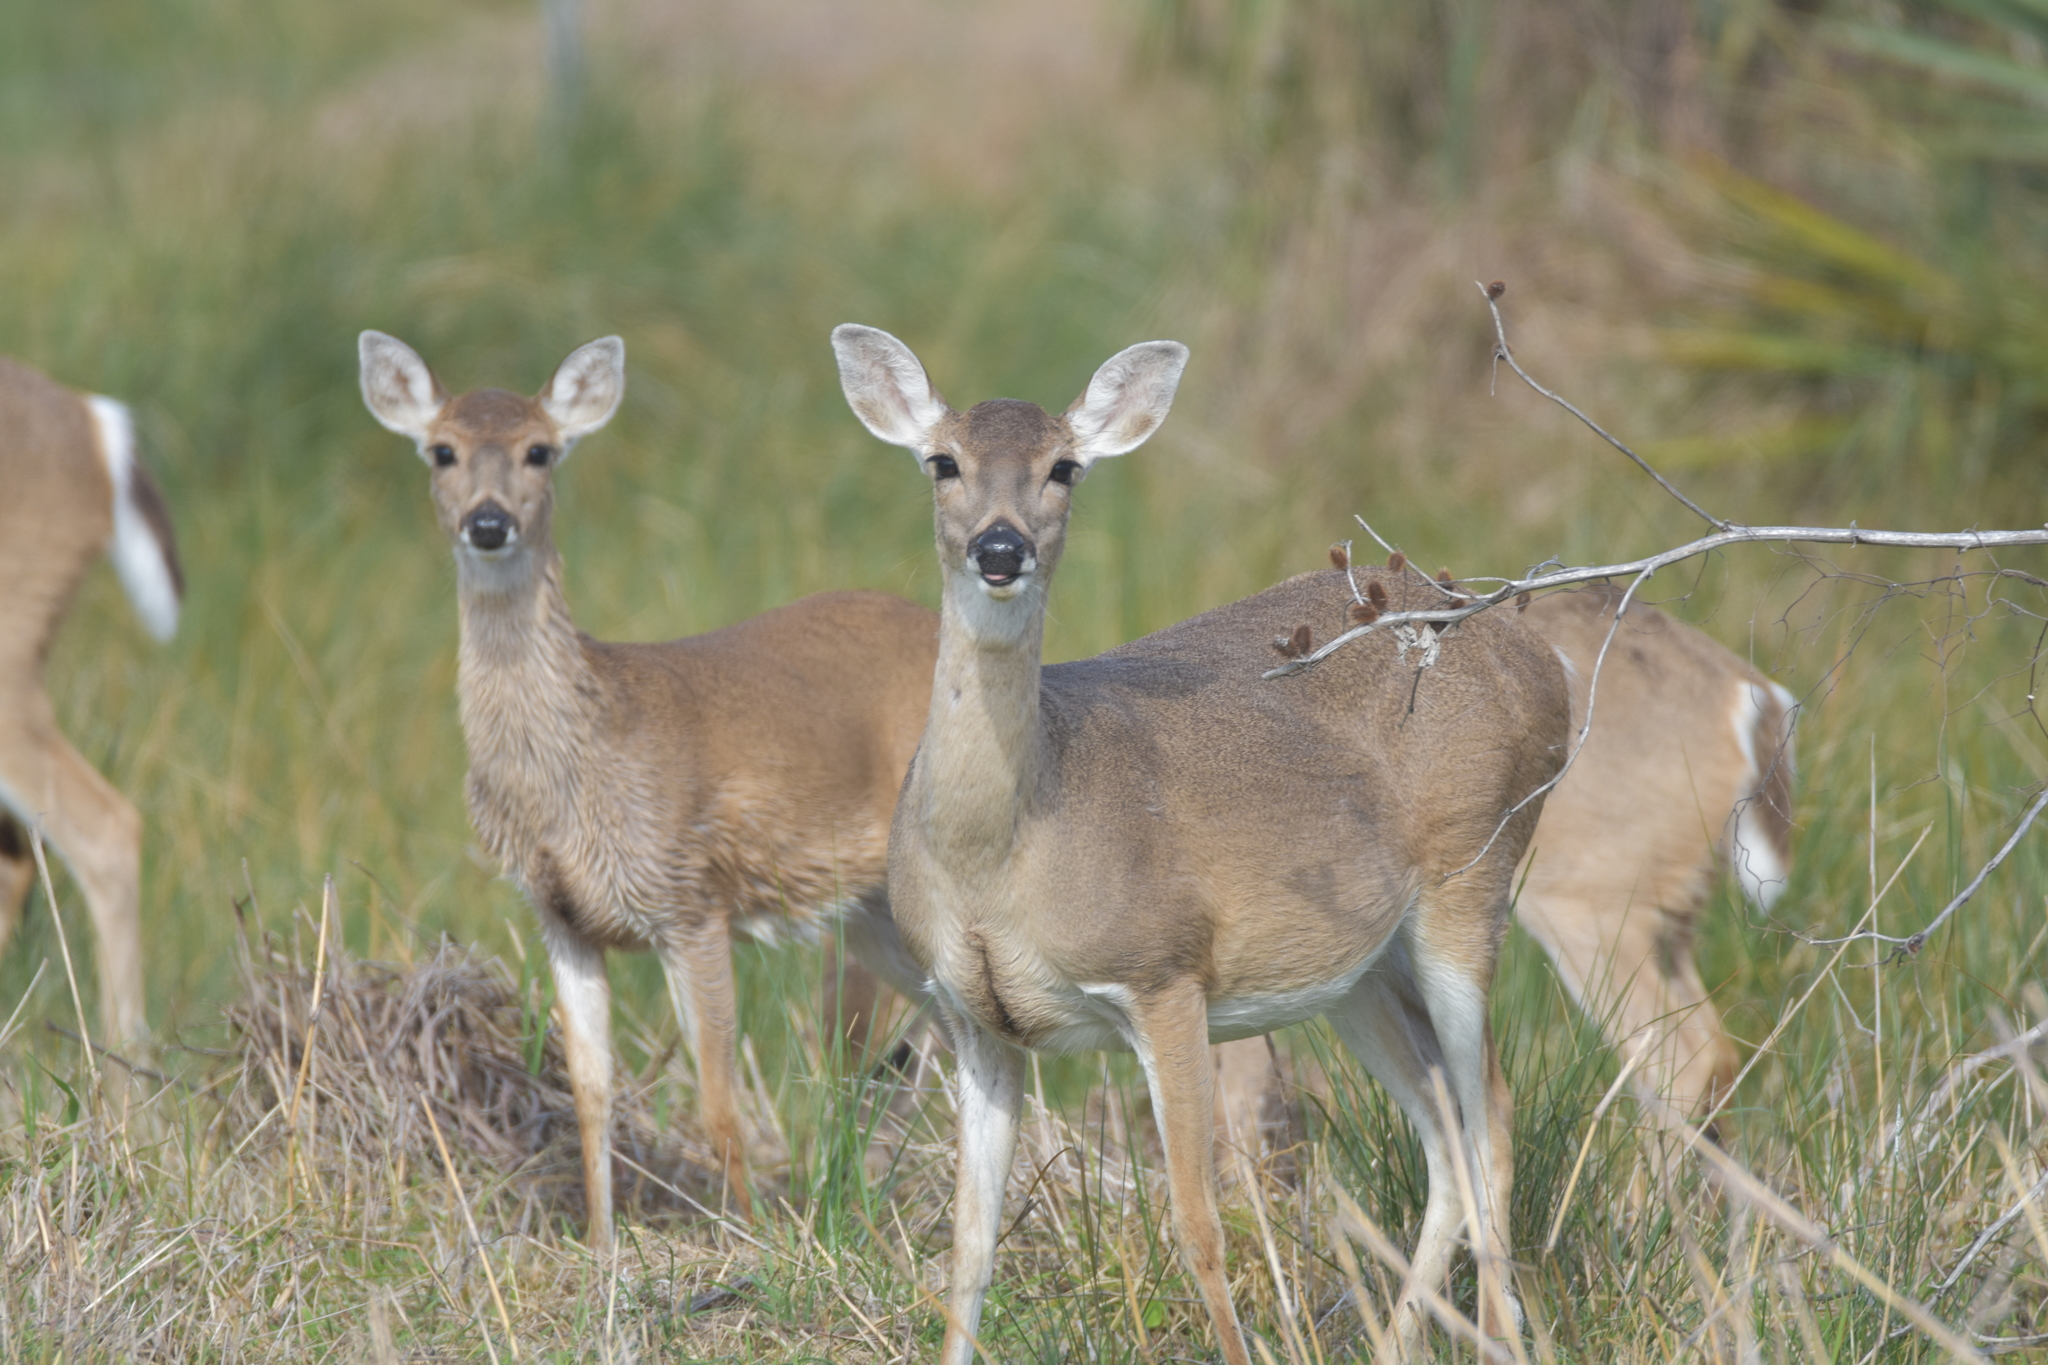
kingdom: Animalia
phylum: Chordata
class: Mammalia
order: Artiodactyla
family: Cervidae
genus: Odocoileus
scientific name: Odocoileus virginianus
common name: White-tailed deer
